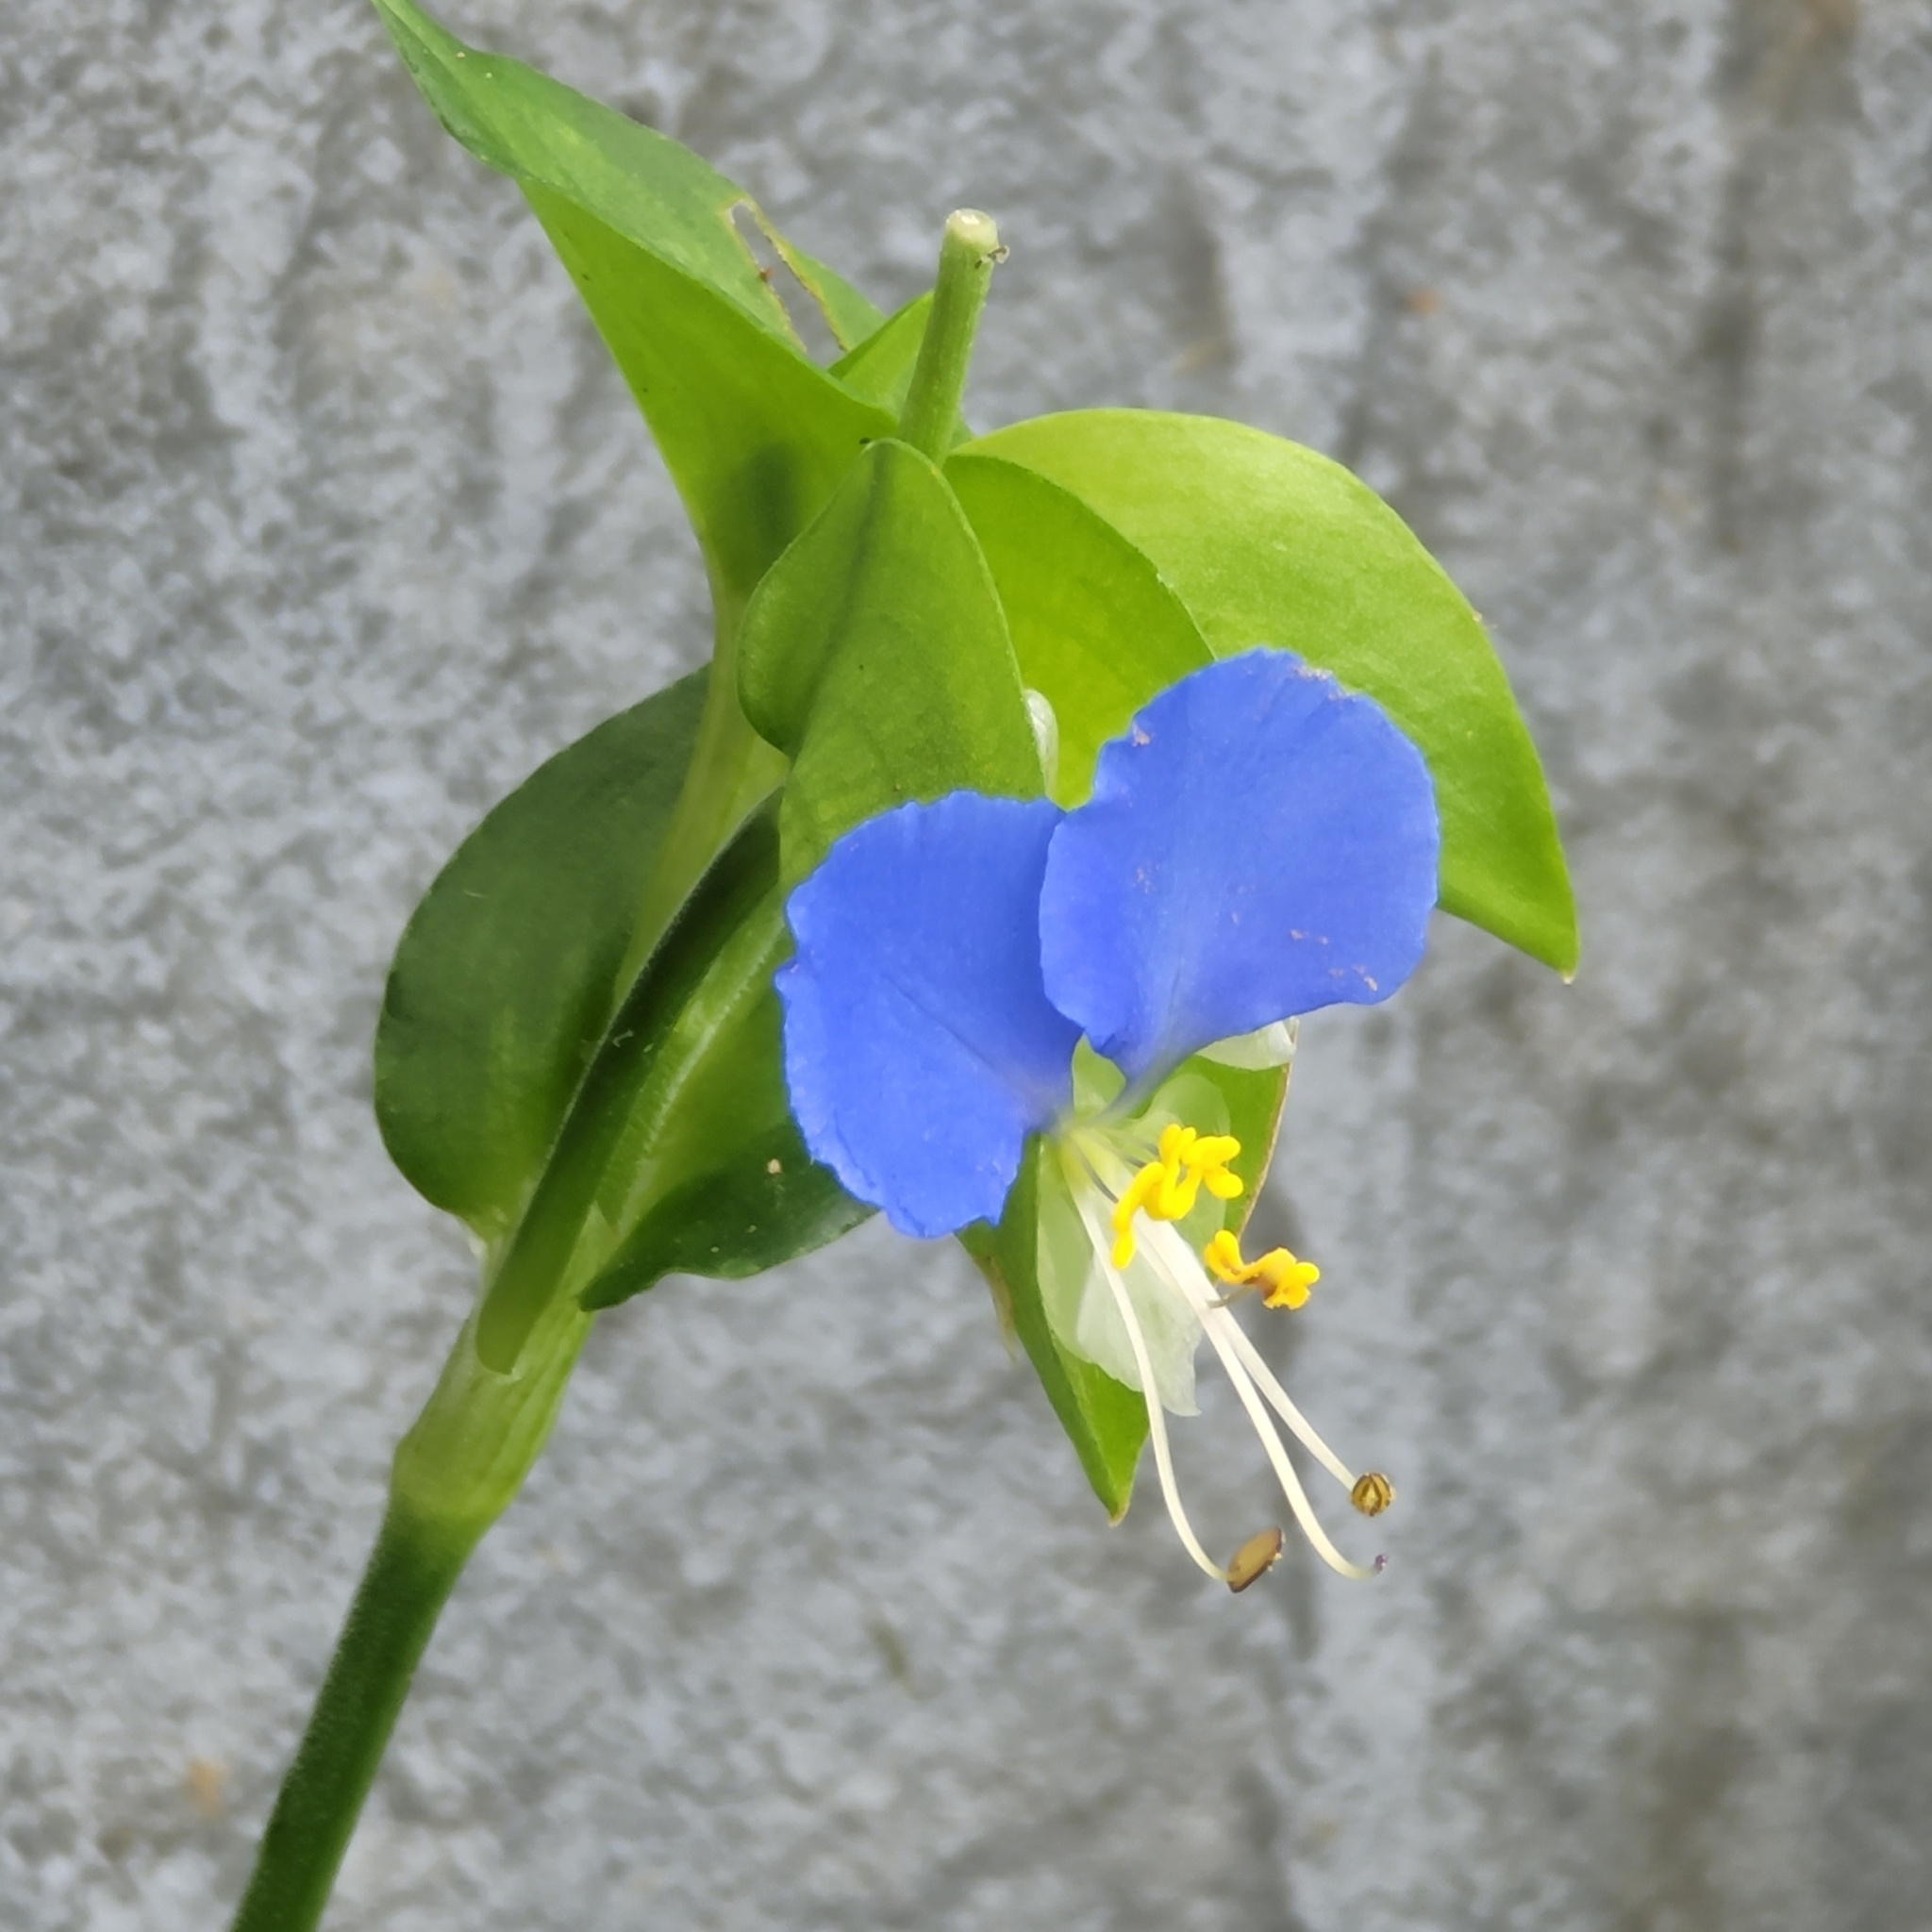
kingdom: Plantae
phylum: Tracheophyta
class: Liliopsida
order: Commelinales
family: Commelinaceae
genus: Commelina
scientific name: Commelina communis
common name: Asiatic dayflower
